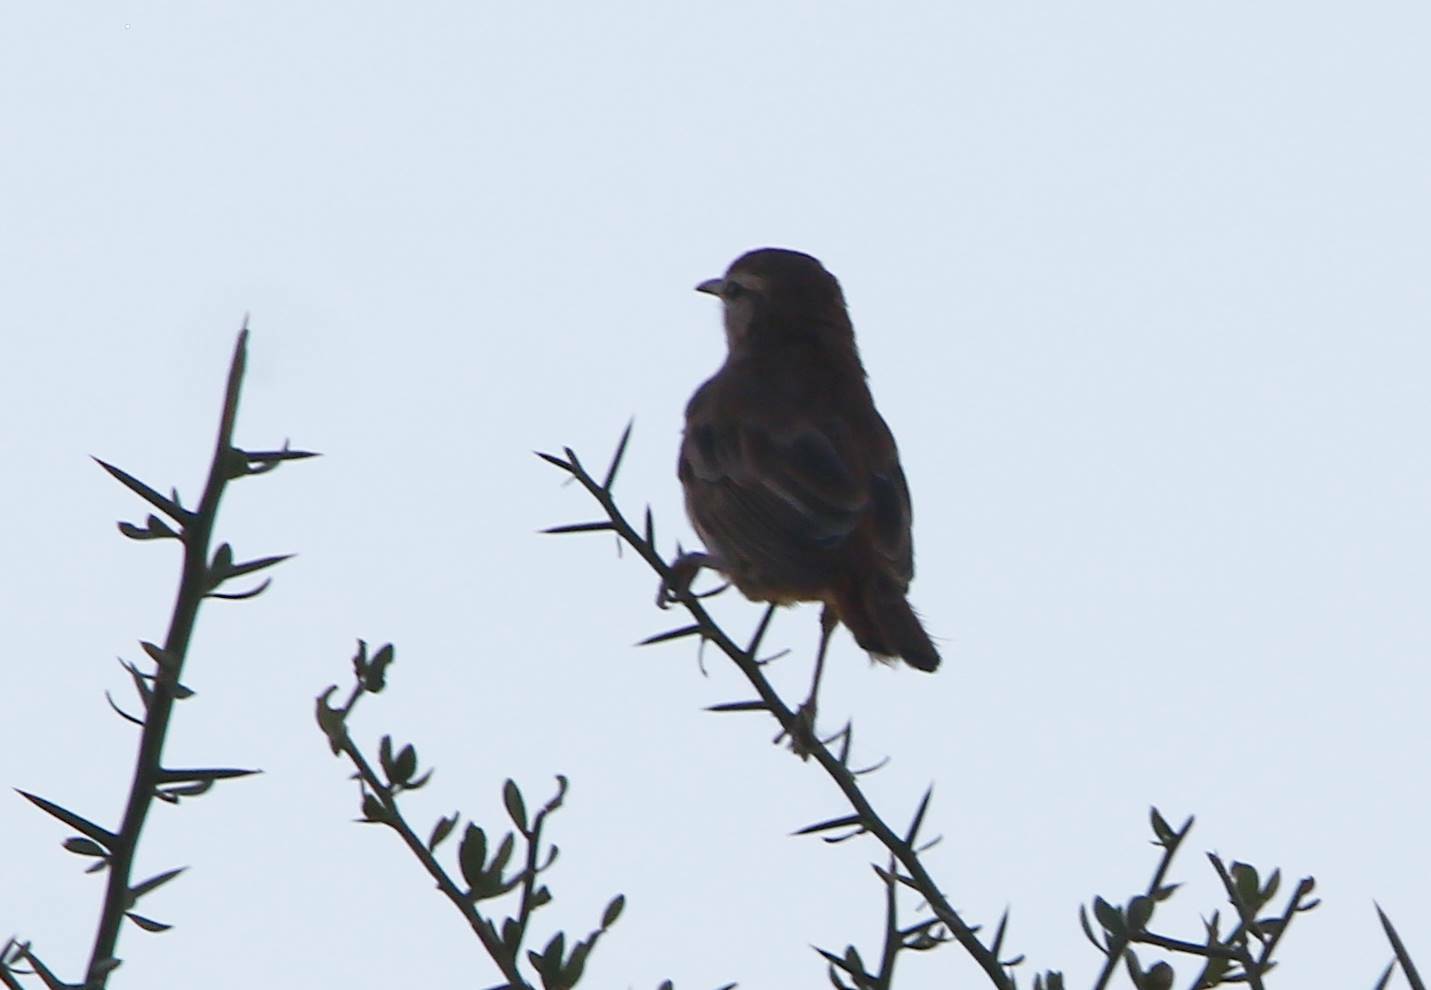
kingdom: Animalia
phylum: Chordata
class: Aves
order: Passeriformes
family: Muscicapidae
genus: Erythropygia
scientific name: Erythropygia galactotes
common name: Rufous-tailed scrub robin
